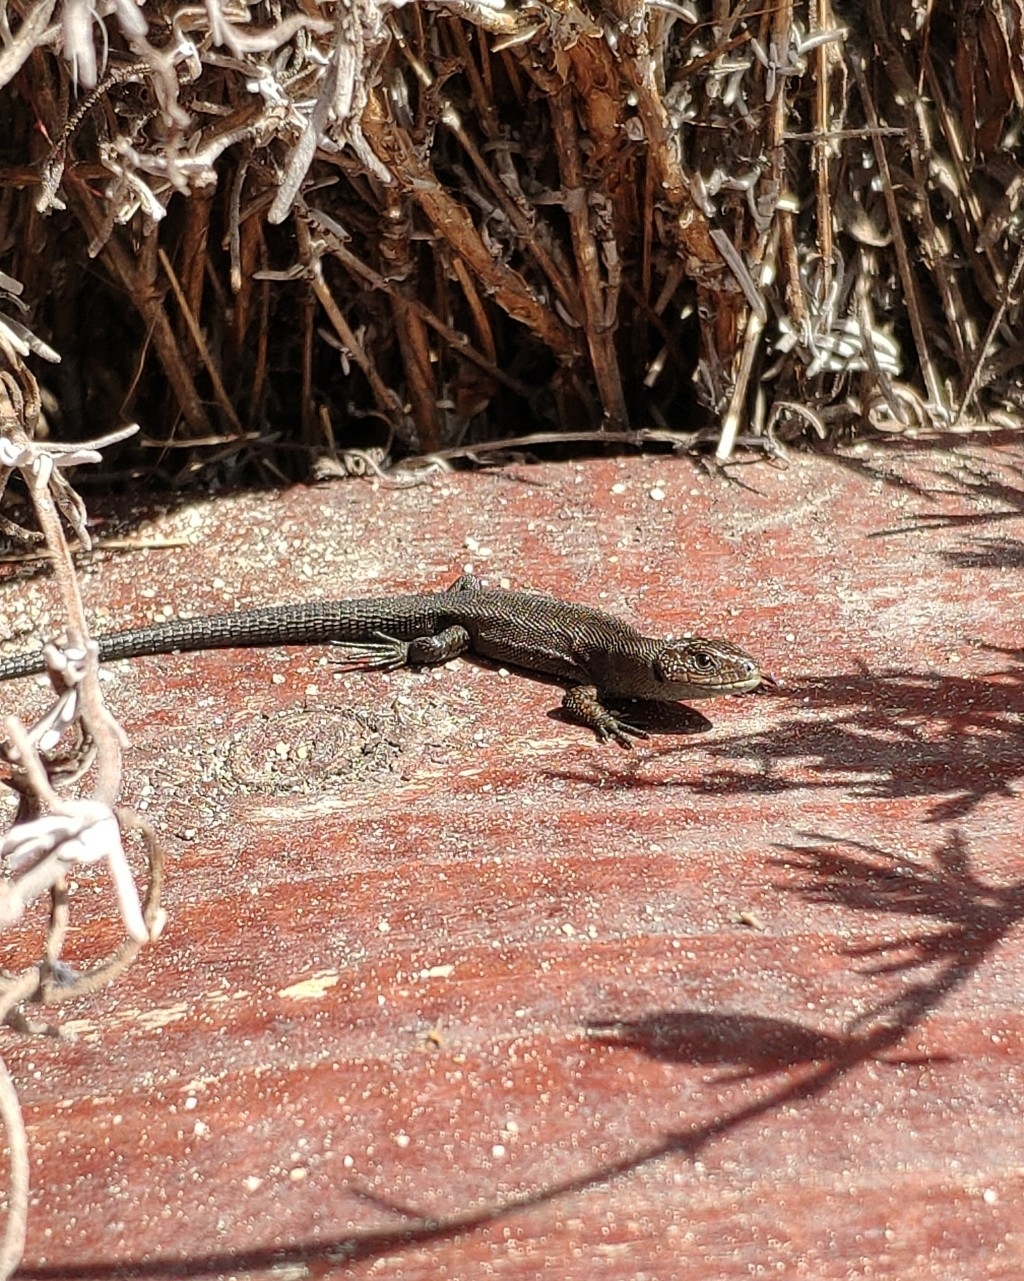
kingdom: Animalia
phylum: Chordata
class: Squamata
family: Lacertidae
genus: Zootoca
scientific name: Zootoca vivipara
